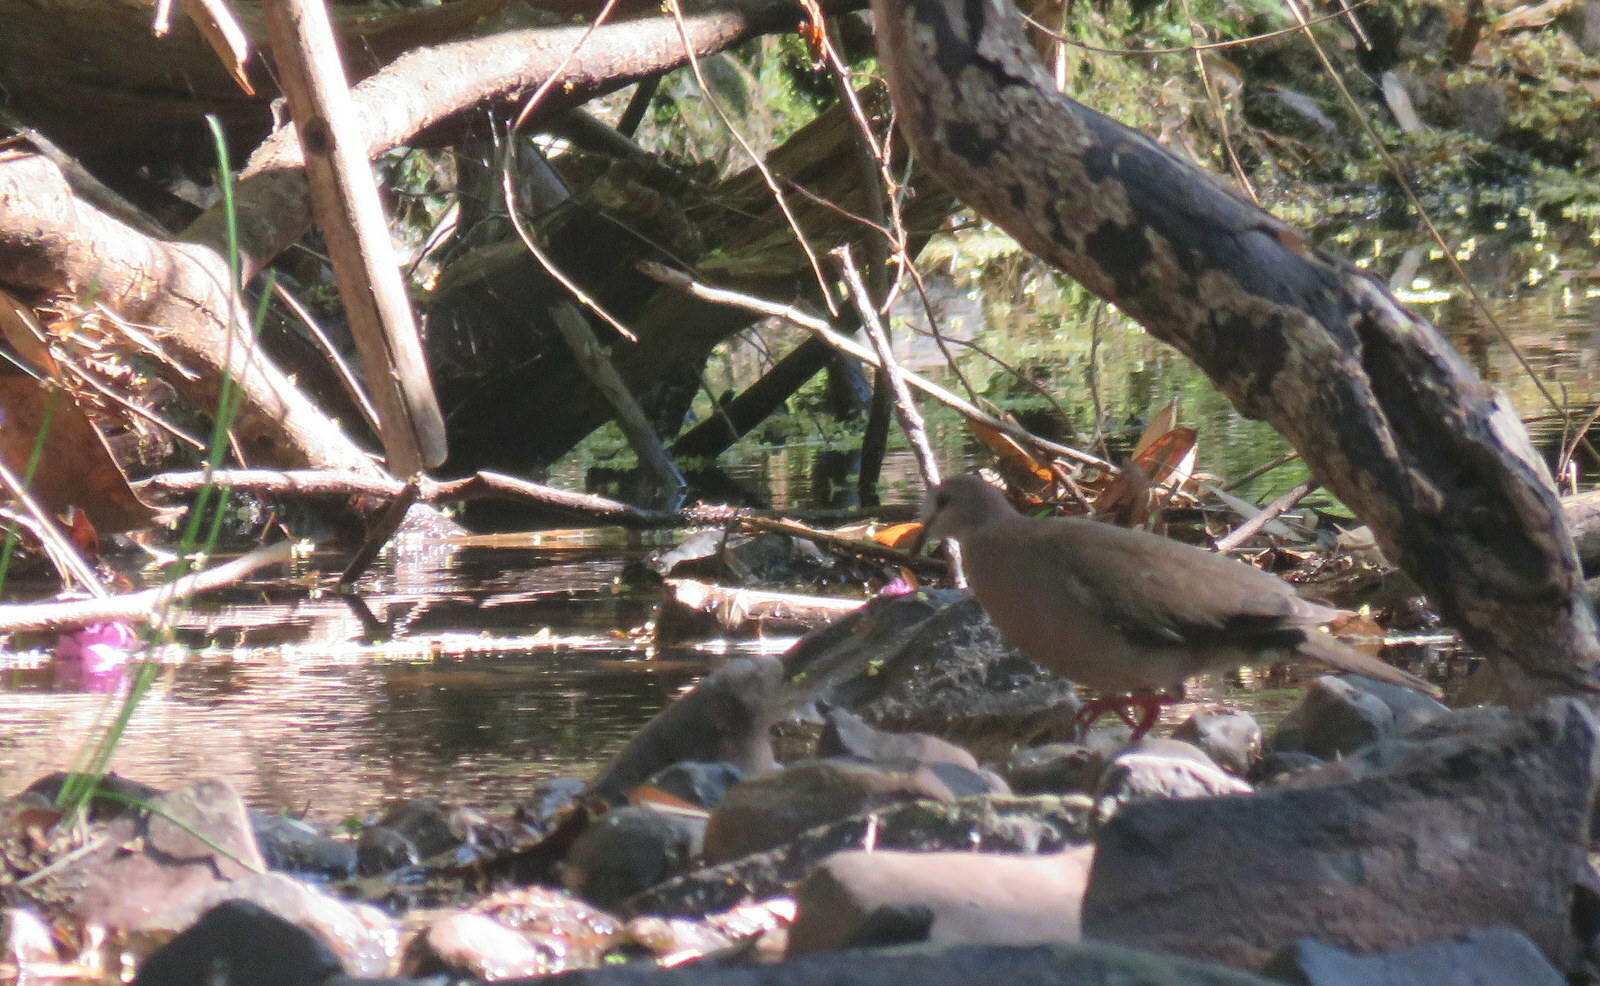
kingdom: Animalia
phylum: Chordata
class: Aves
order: Columbiformes
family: Columbidae
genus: Leptotila
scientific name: Leptotila rufaxilla
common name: Grey-fronted dove
